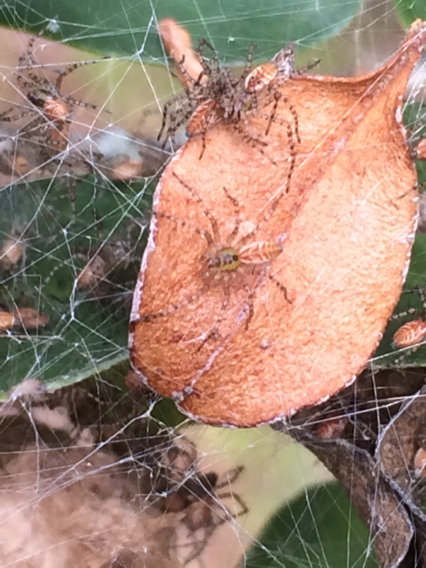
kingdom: Animalia
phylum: Arthropoda
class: Arachnida
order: Araneae
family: Oxyopidae
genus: Peucetia
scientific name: Peucetia viridans
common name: Lynx spiders
